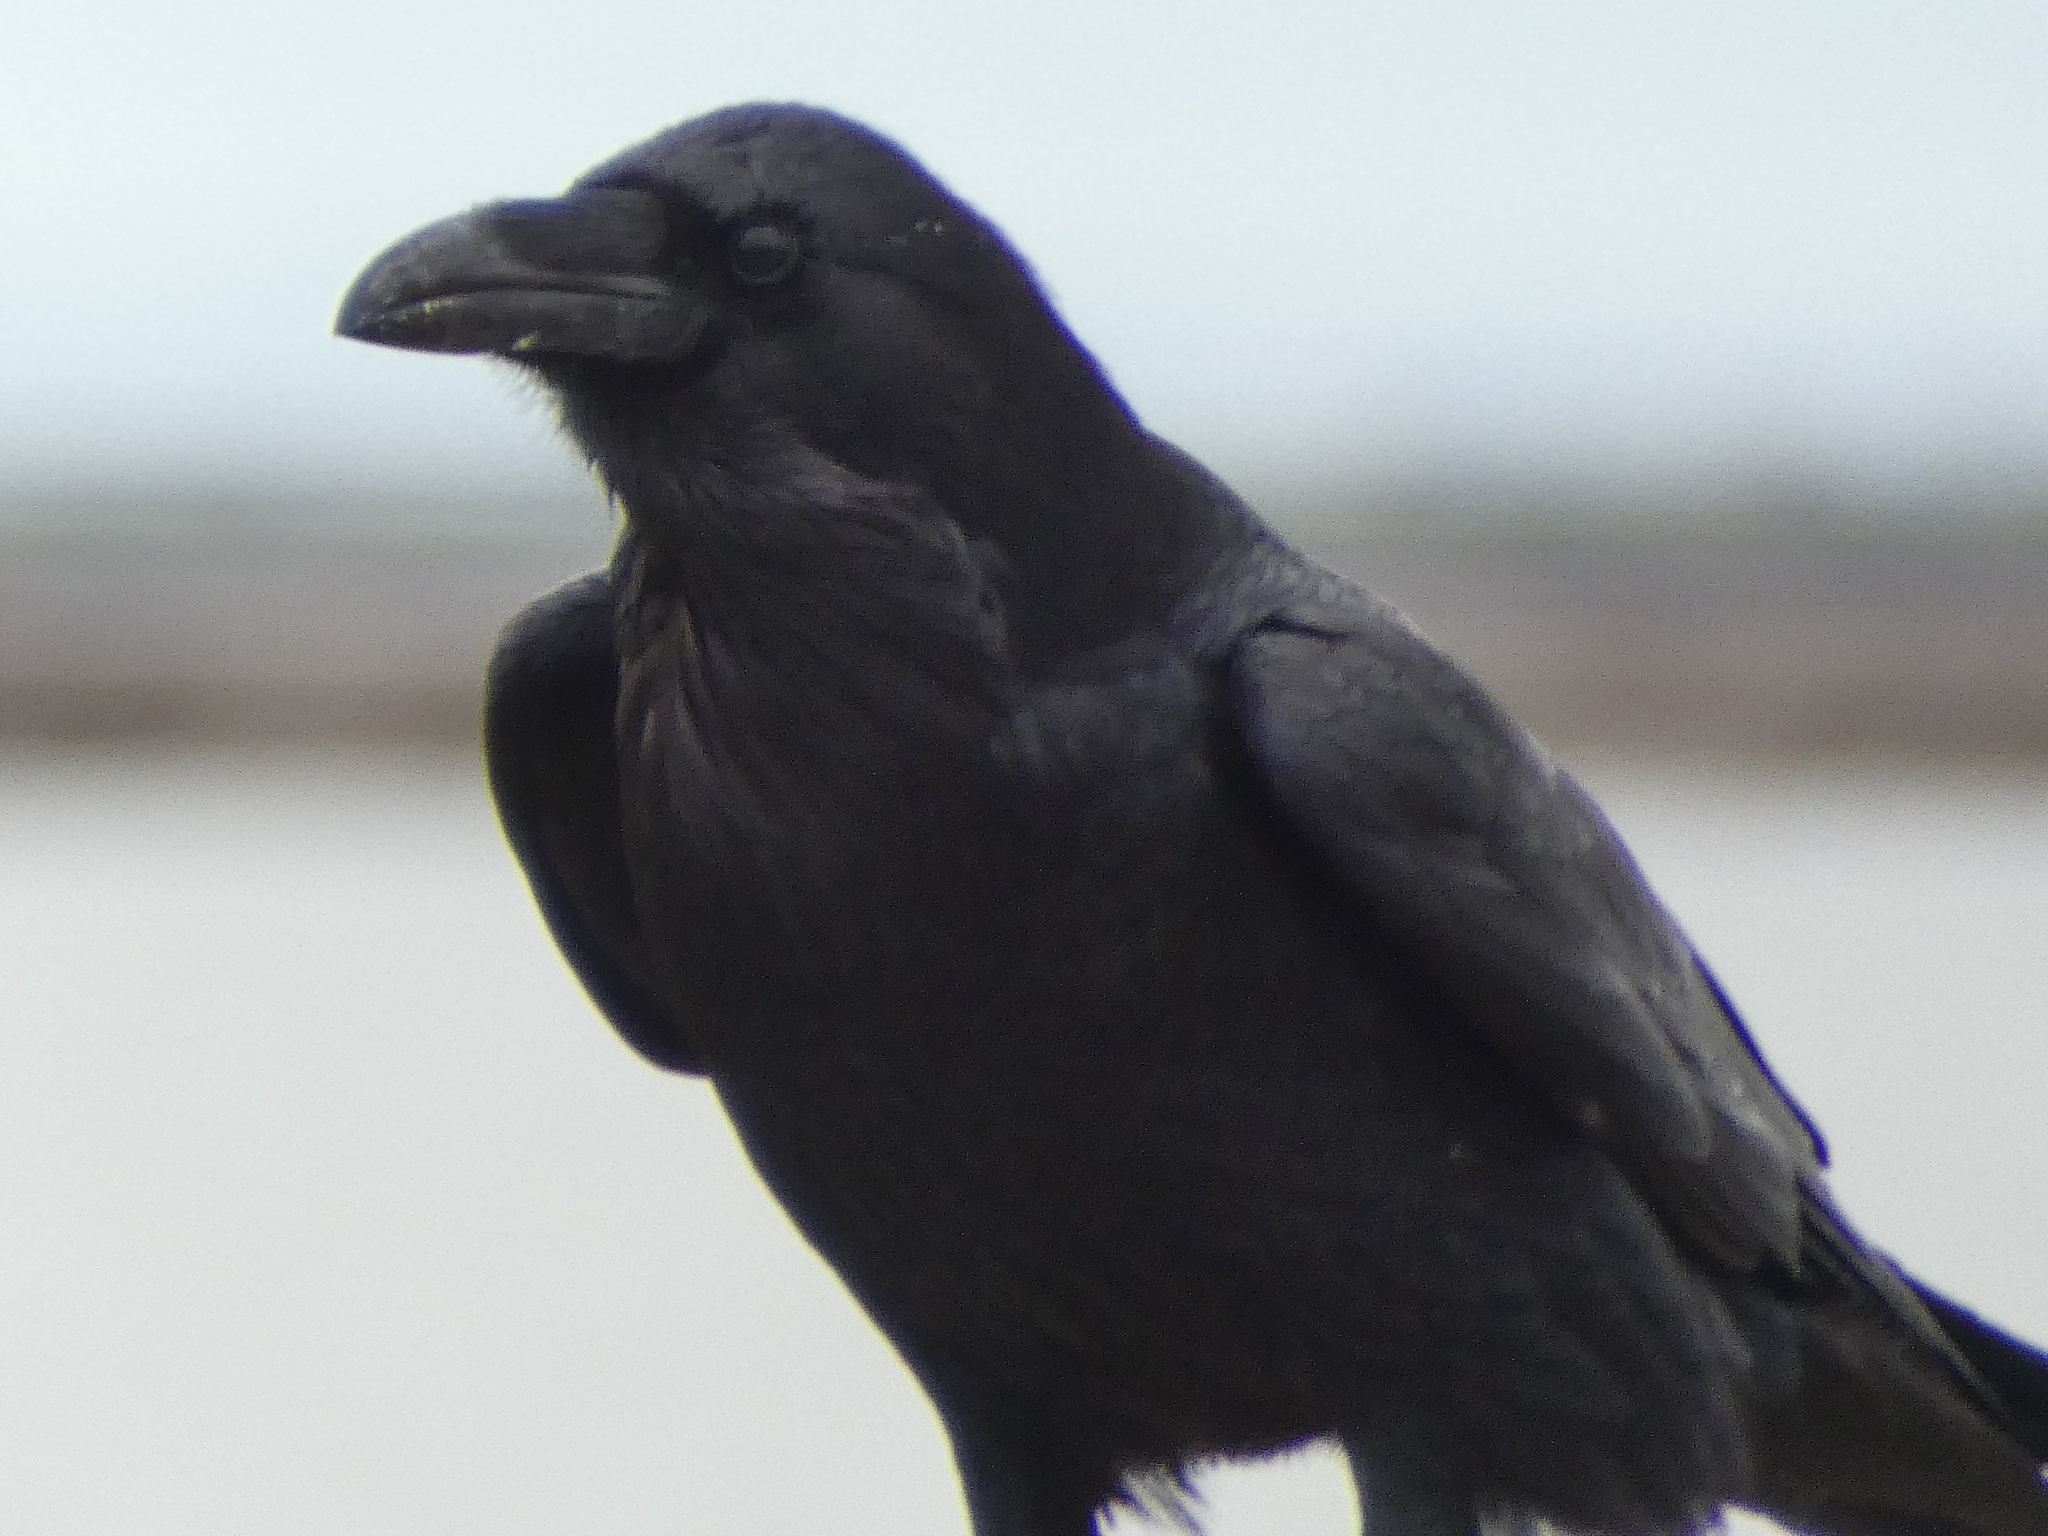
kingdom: Animalia
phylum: Chordata
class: Aves
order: Passeriformes
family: Corvidae
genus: Corvus
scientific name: Corvus corax
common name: Common raven
